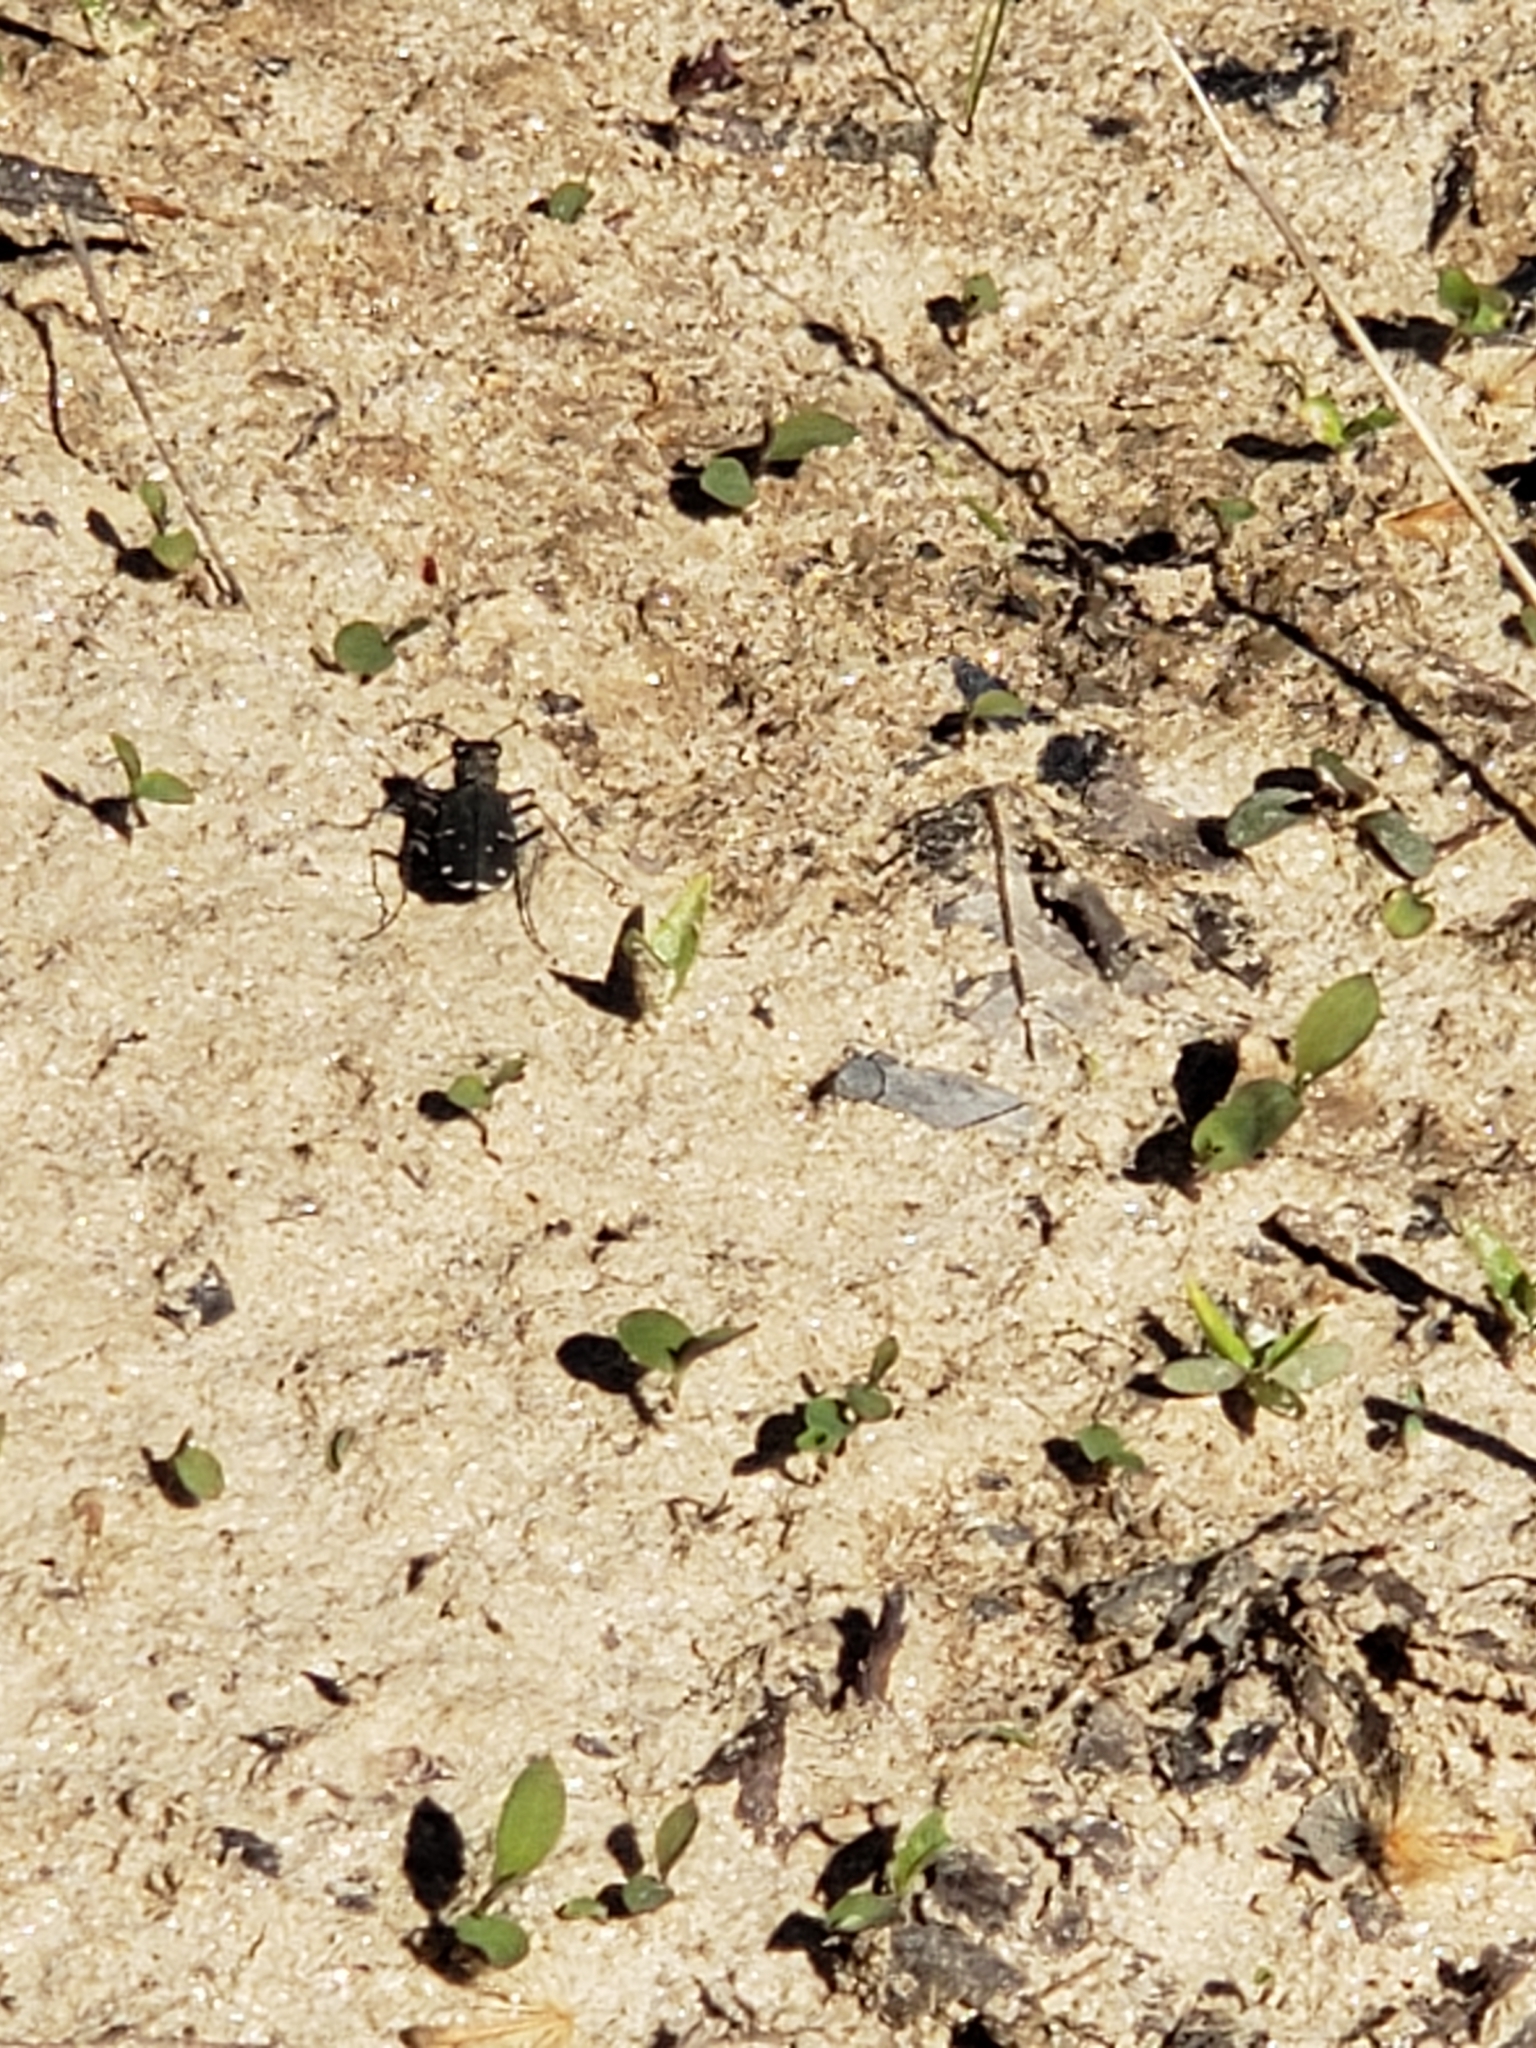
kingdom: Animalia
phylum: Arthropoda
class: Insecta
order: Coleoptera
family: Carabidae
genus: Cicindela
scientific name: Cicindela duodecimguttata
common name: Twelve-spotted tiger beetle
